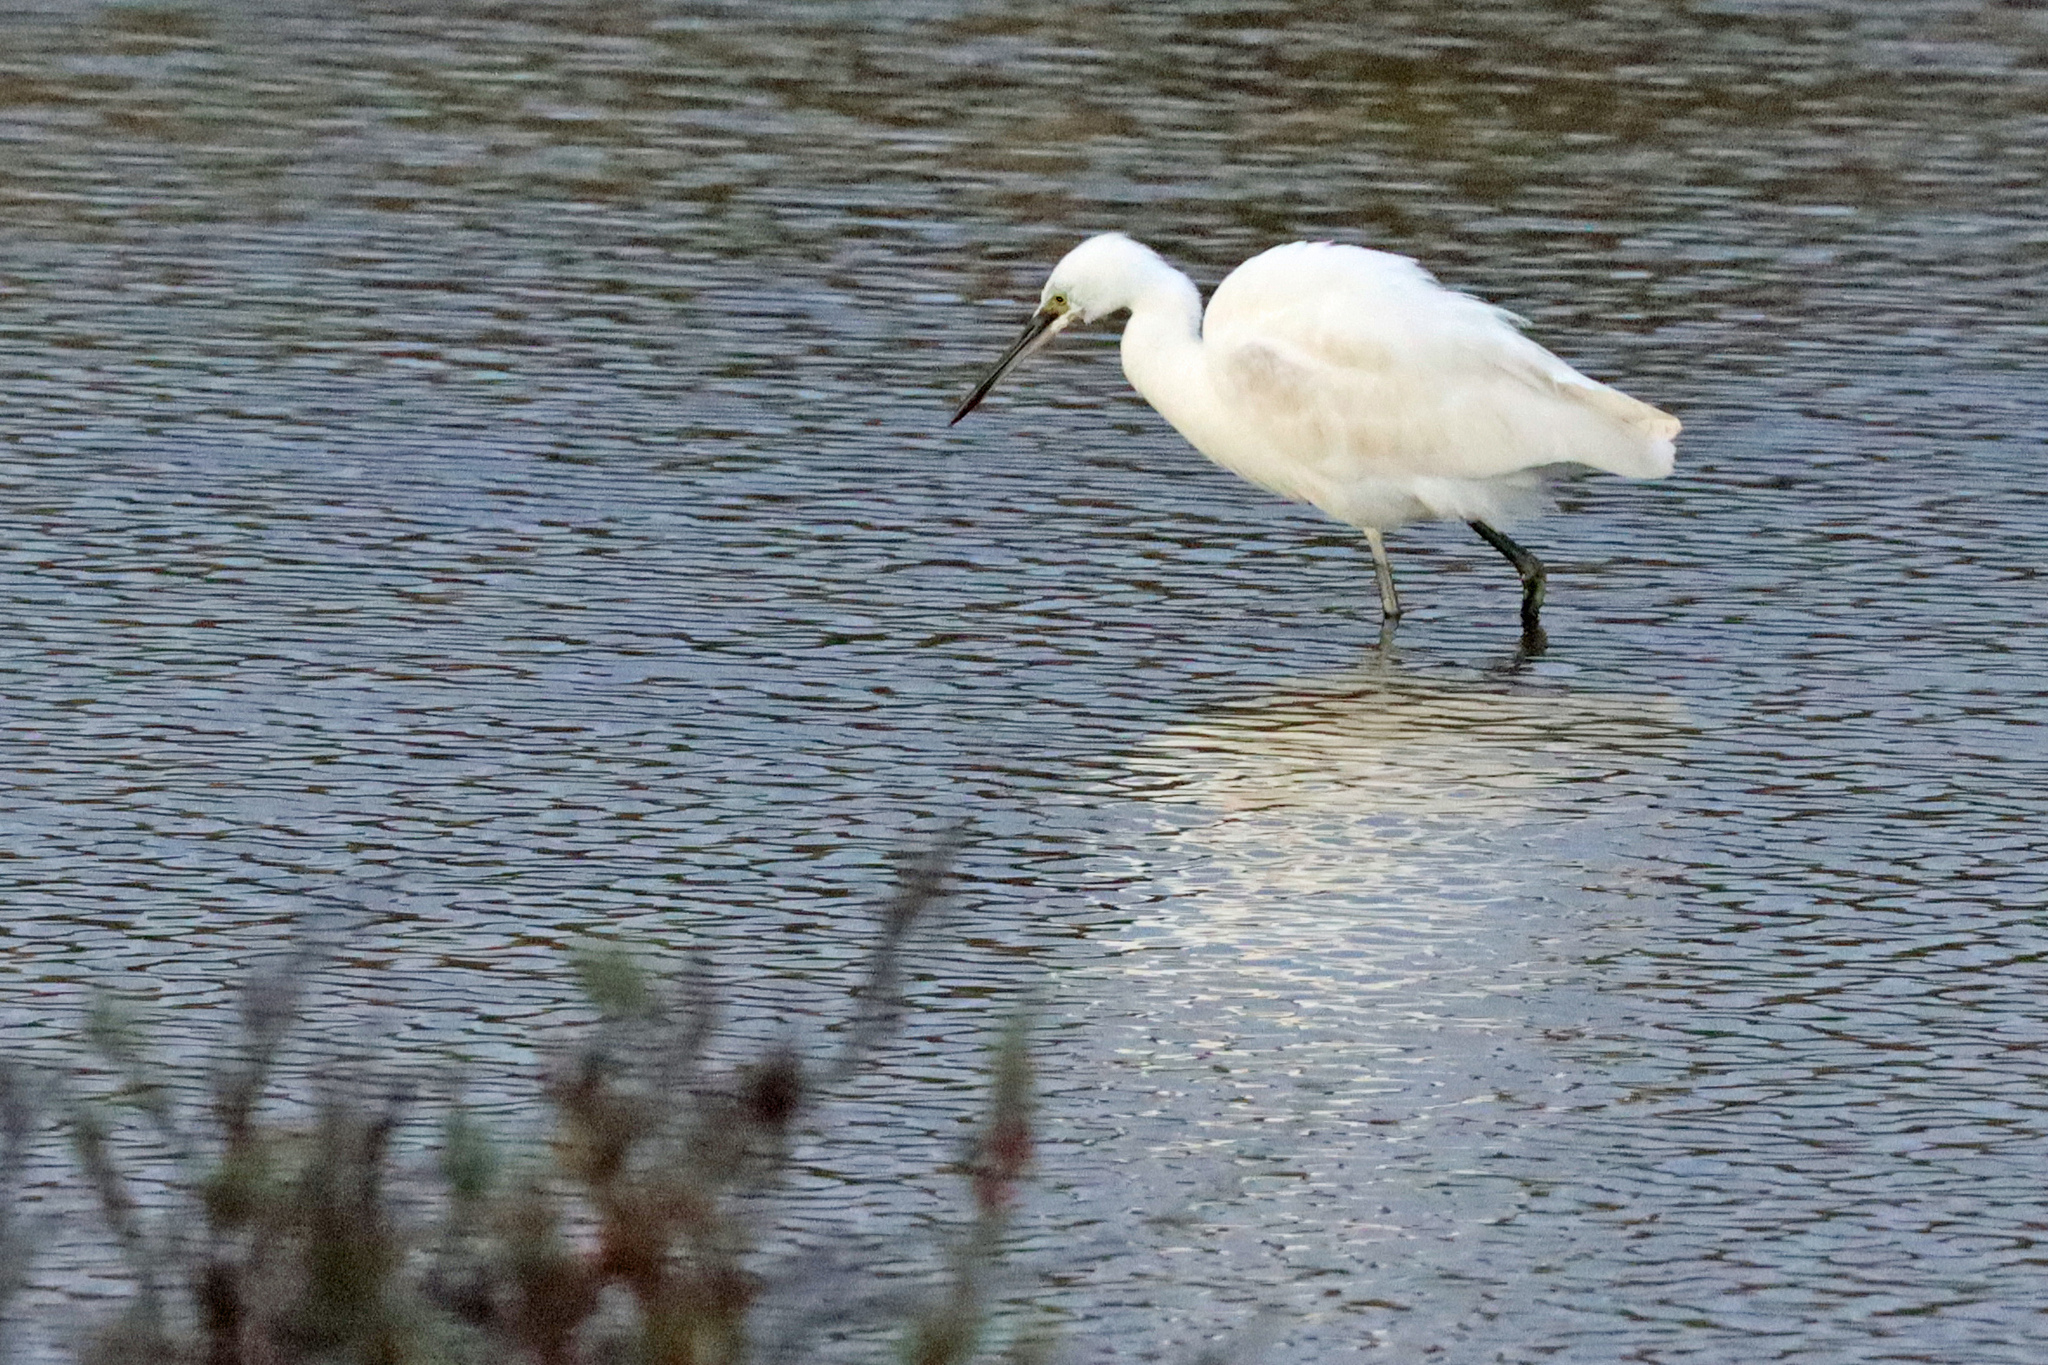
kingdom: Animalia
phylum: Chordata
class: Aves
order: Pelecaniformes
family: Ardeidae
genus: Egretta
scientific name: Egretta garzetta
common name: Little egret
